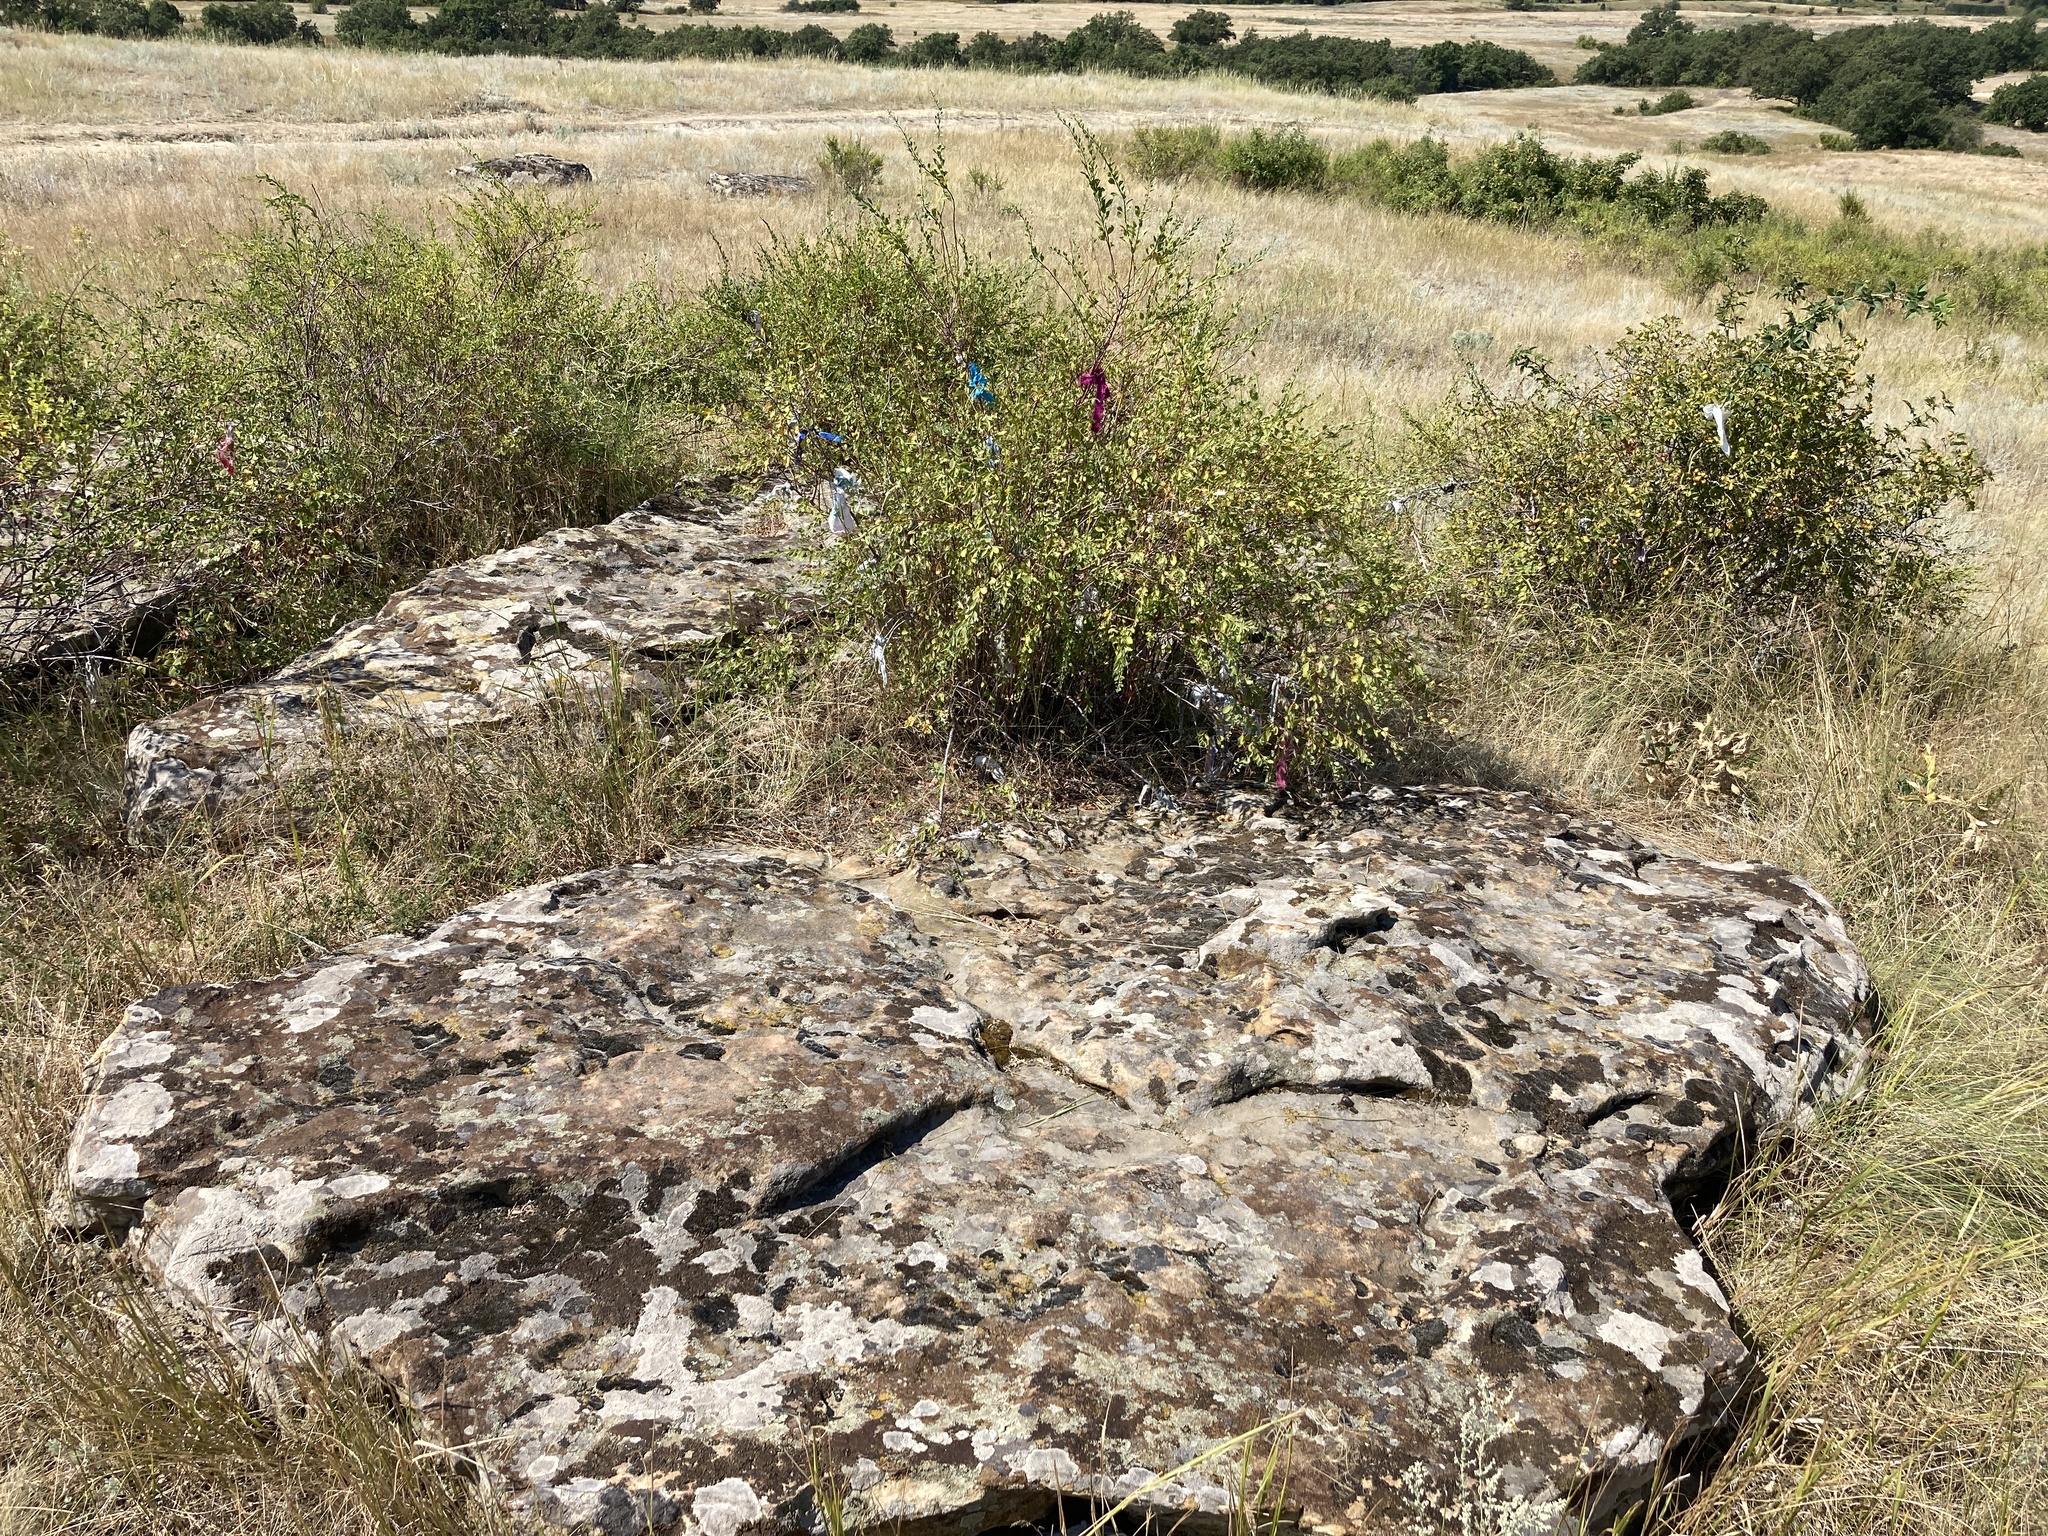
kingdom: Plantae
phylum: Tracheophyta
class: Magnoliopsida
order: Rosales
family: Rosaceae
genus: Spiraea
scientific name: Spiraea crenata
